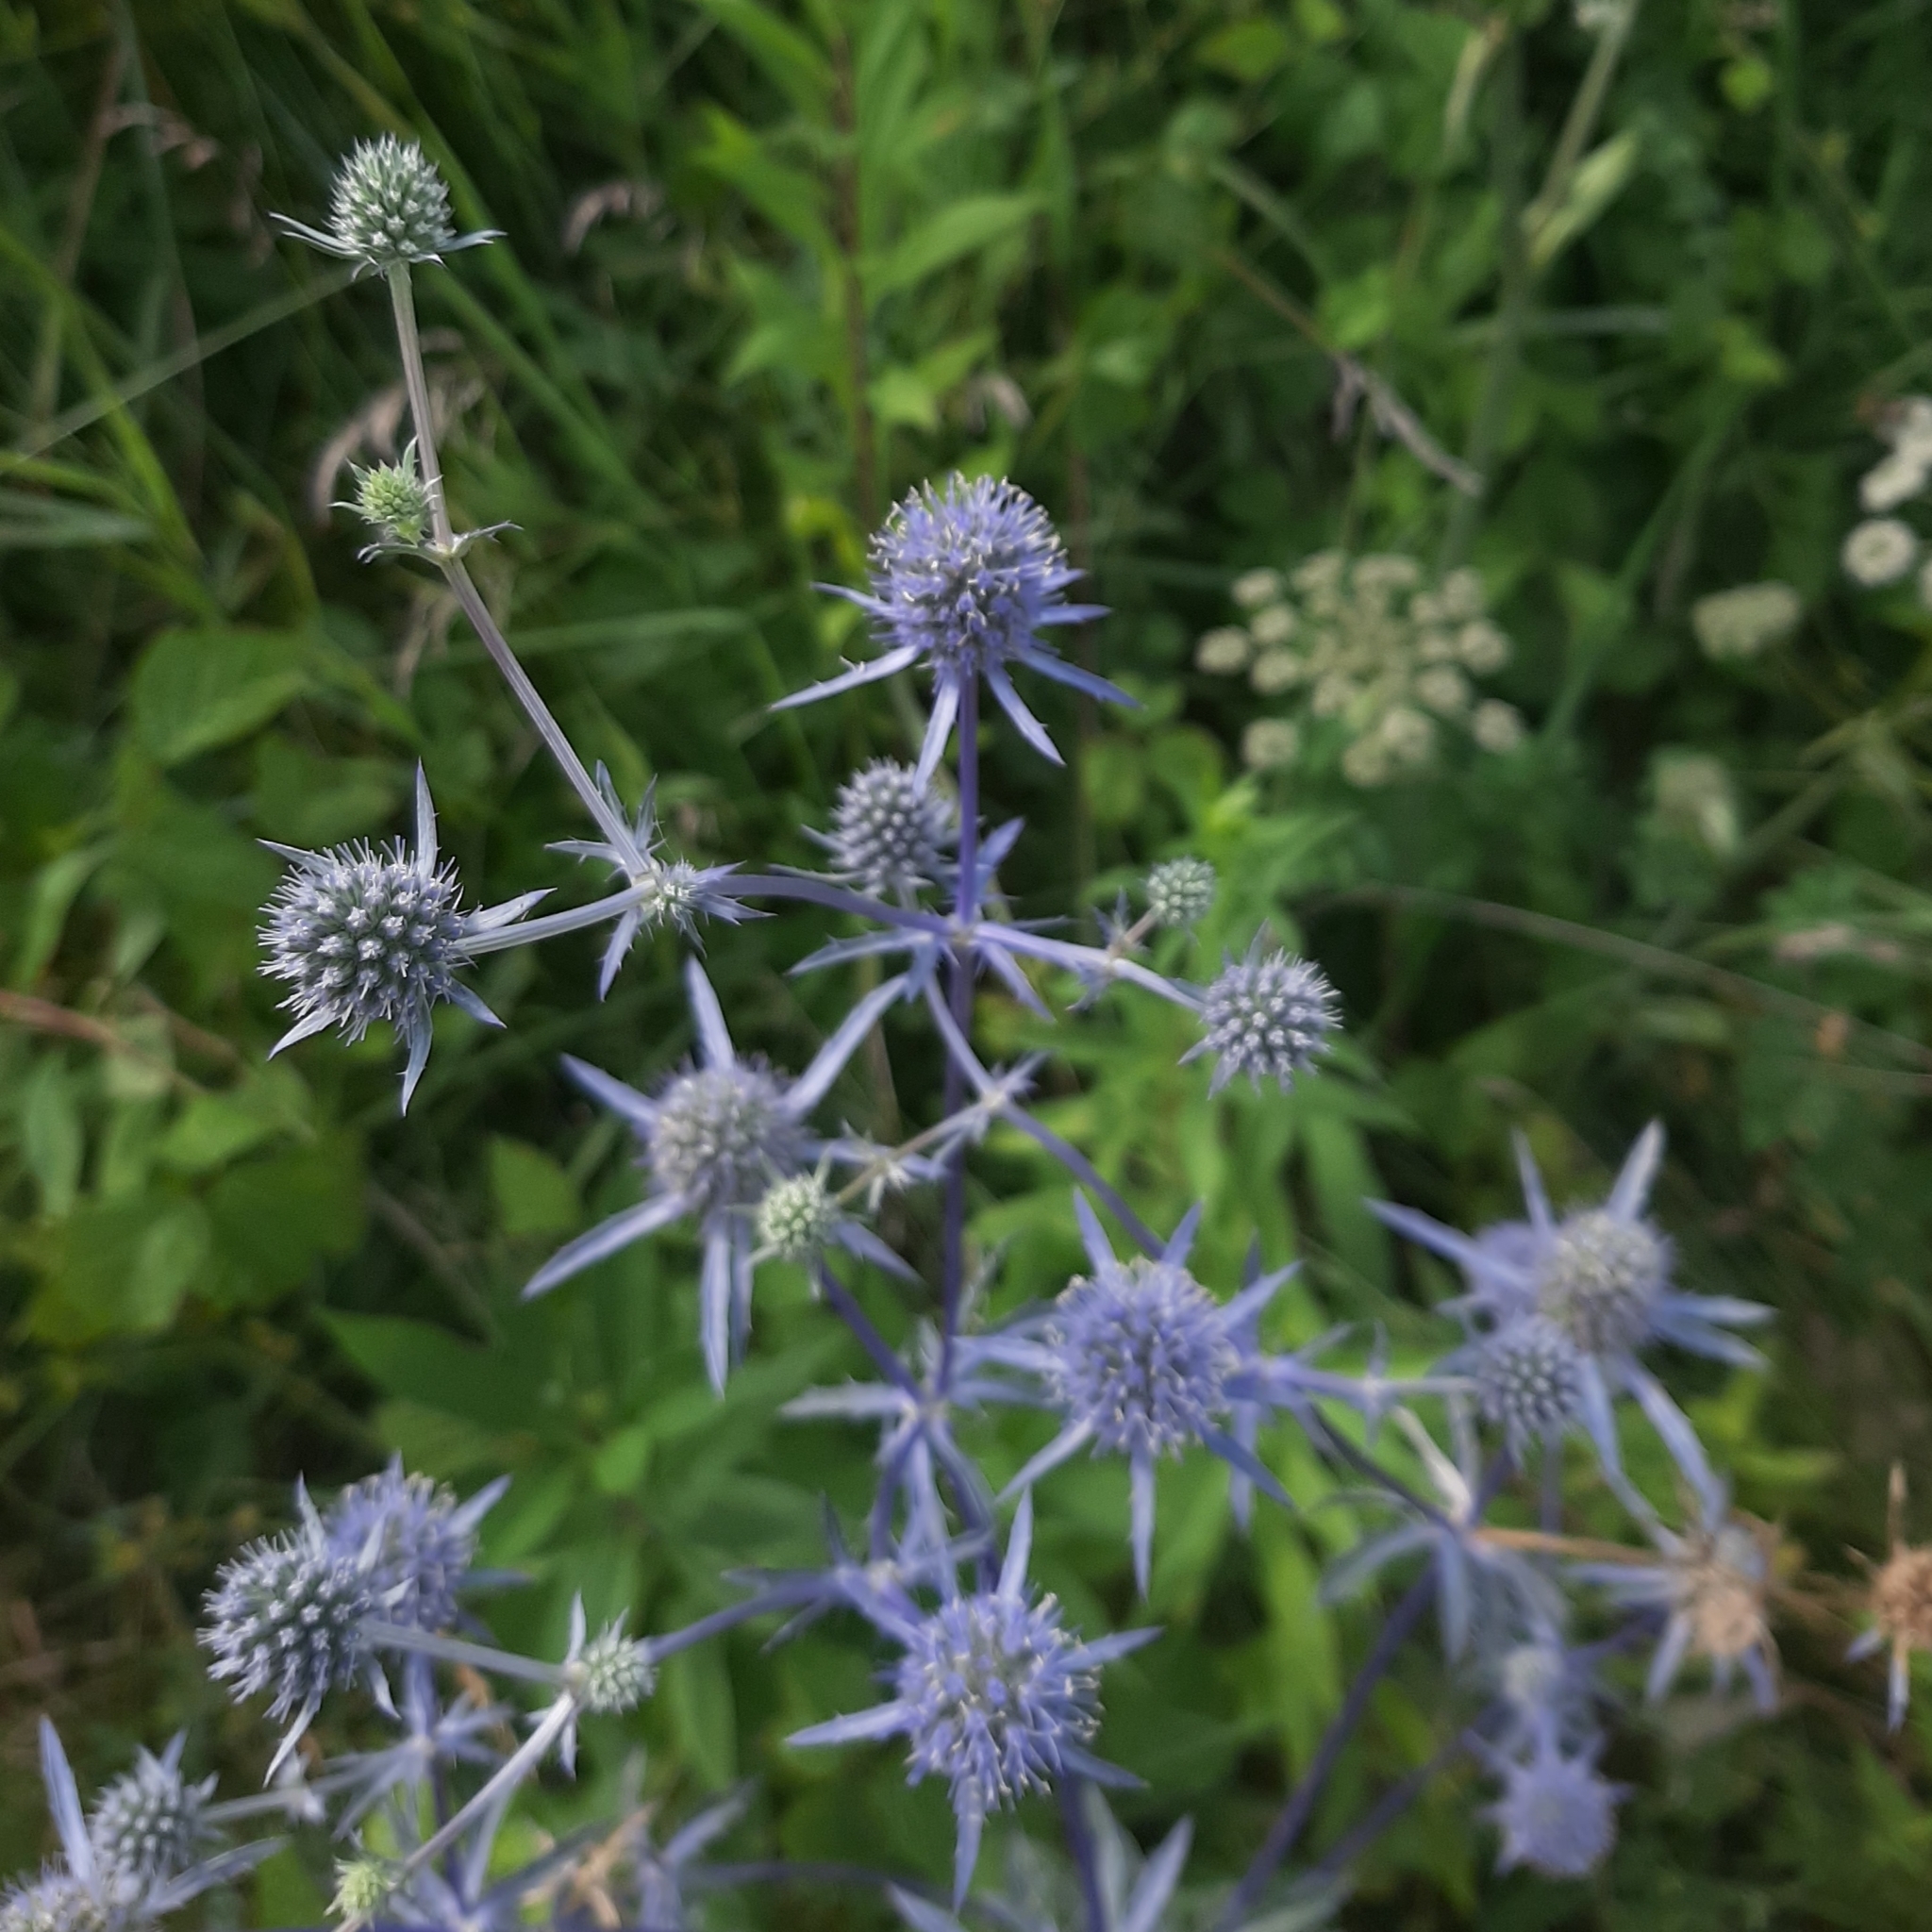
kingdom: Plantae
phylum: Tracheophyta
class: Magnoliopsida
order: Apiales
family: Apiaceae
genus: Eryngium
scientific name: Eryngium planum
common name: Blue eryngo
